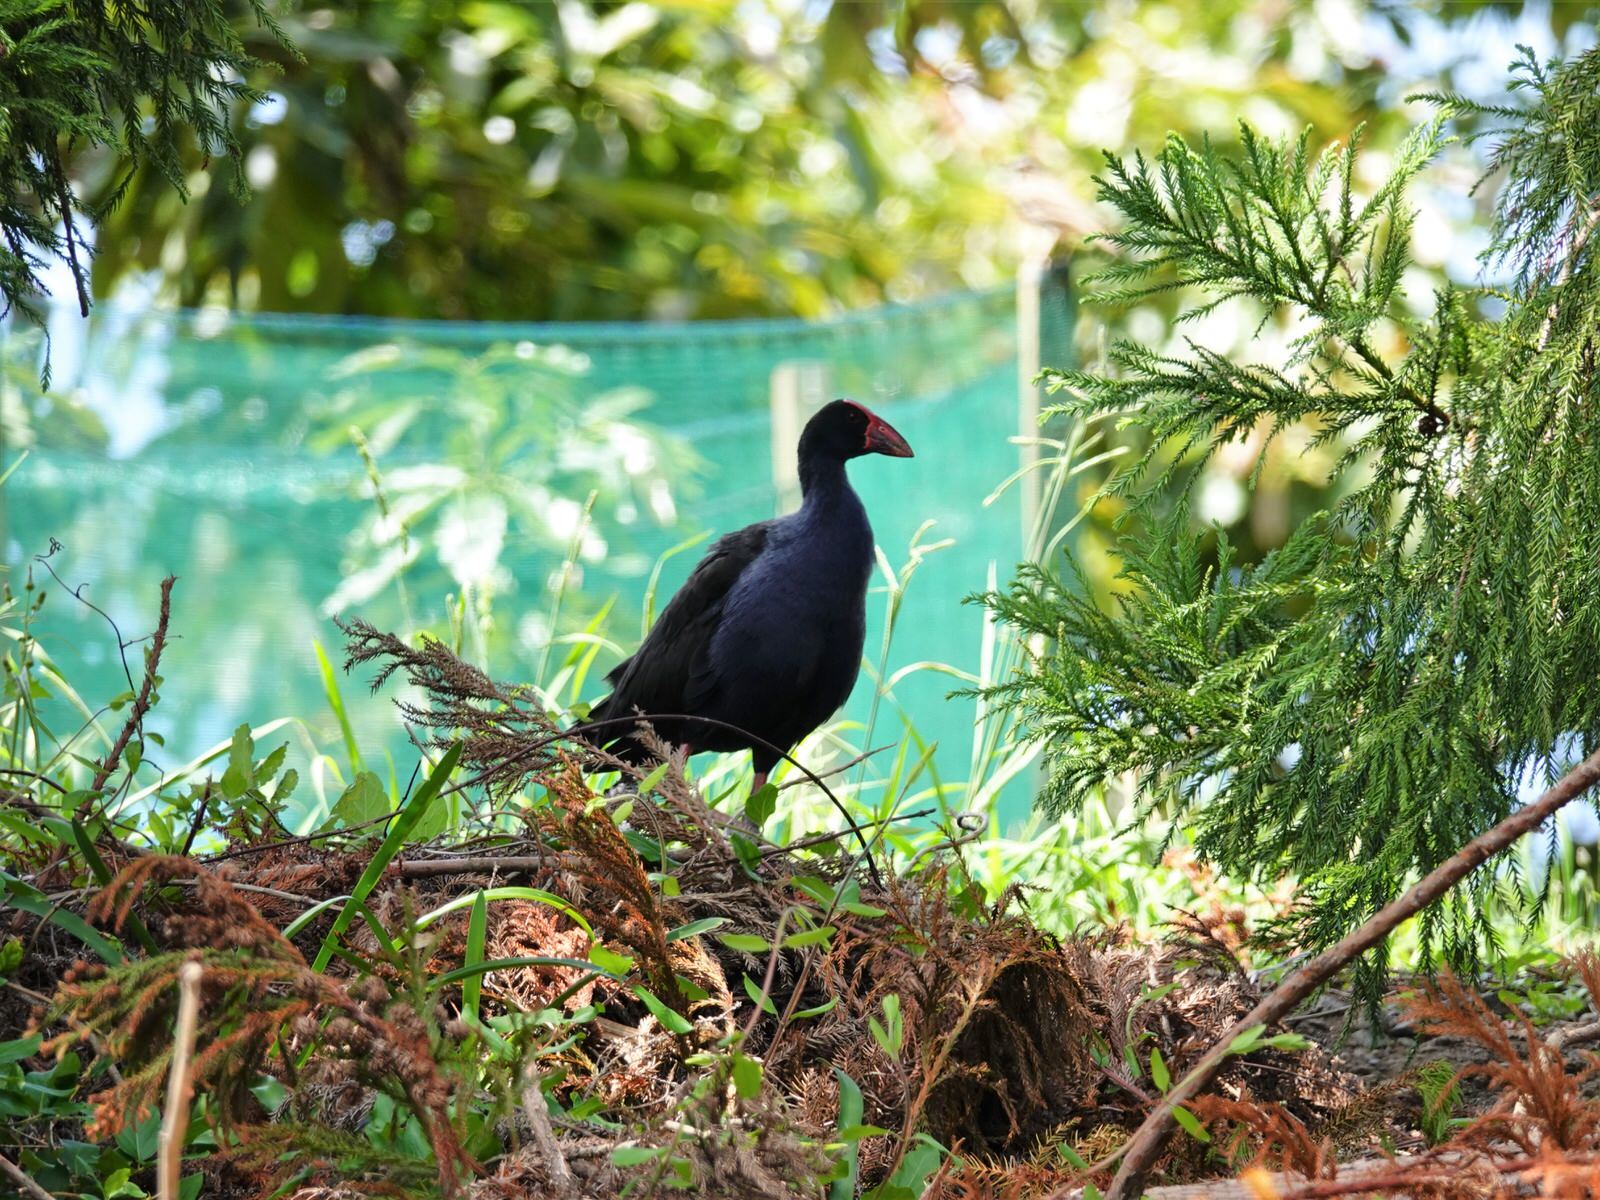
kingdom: Animalia
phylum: Chordata
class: Aves
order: Gruiformes
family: Rallidae
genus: Porphyrio
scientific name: Porphyrio melanotus
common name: Australasian swamphen
